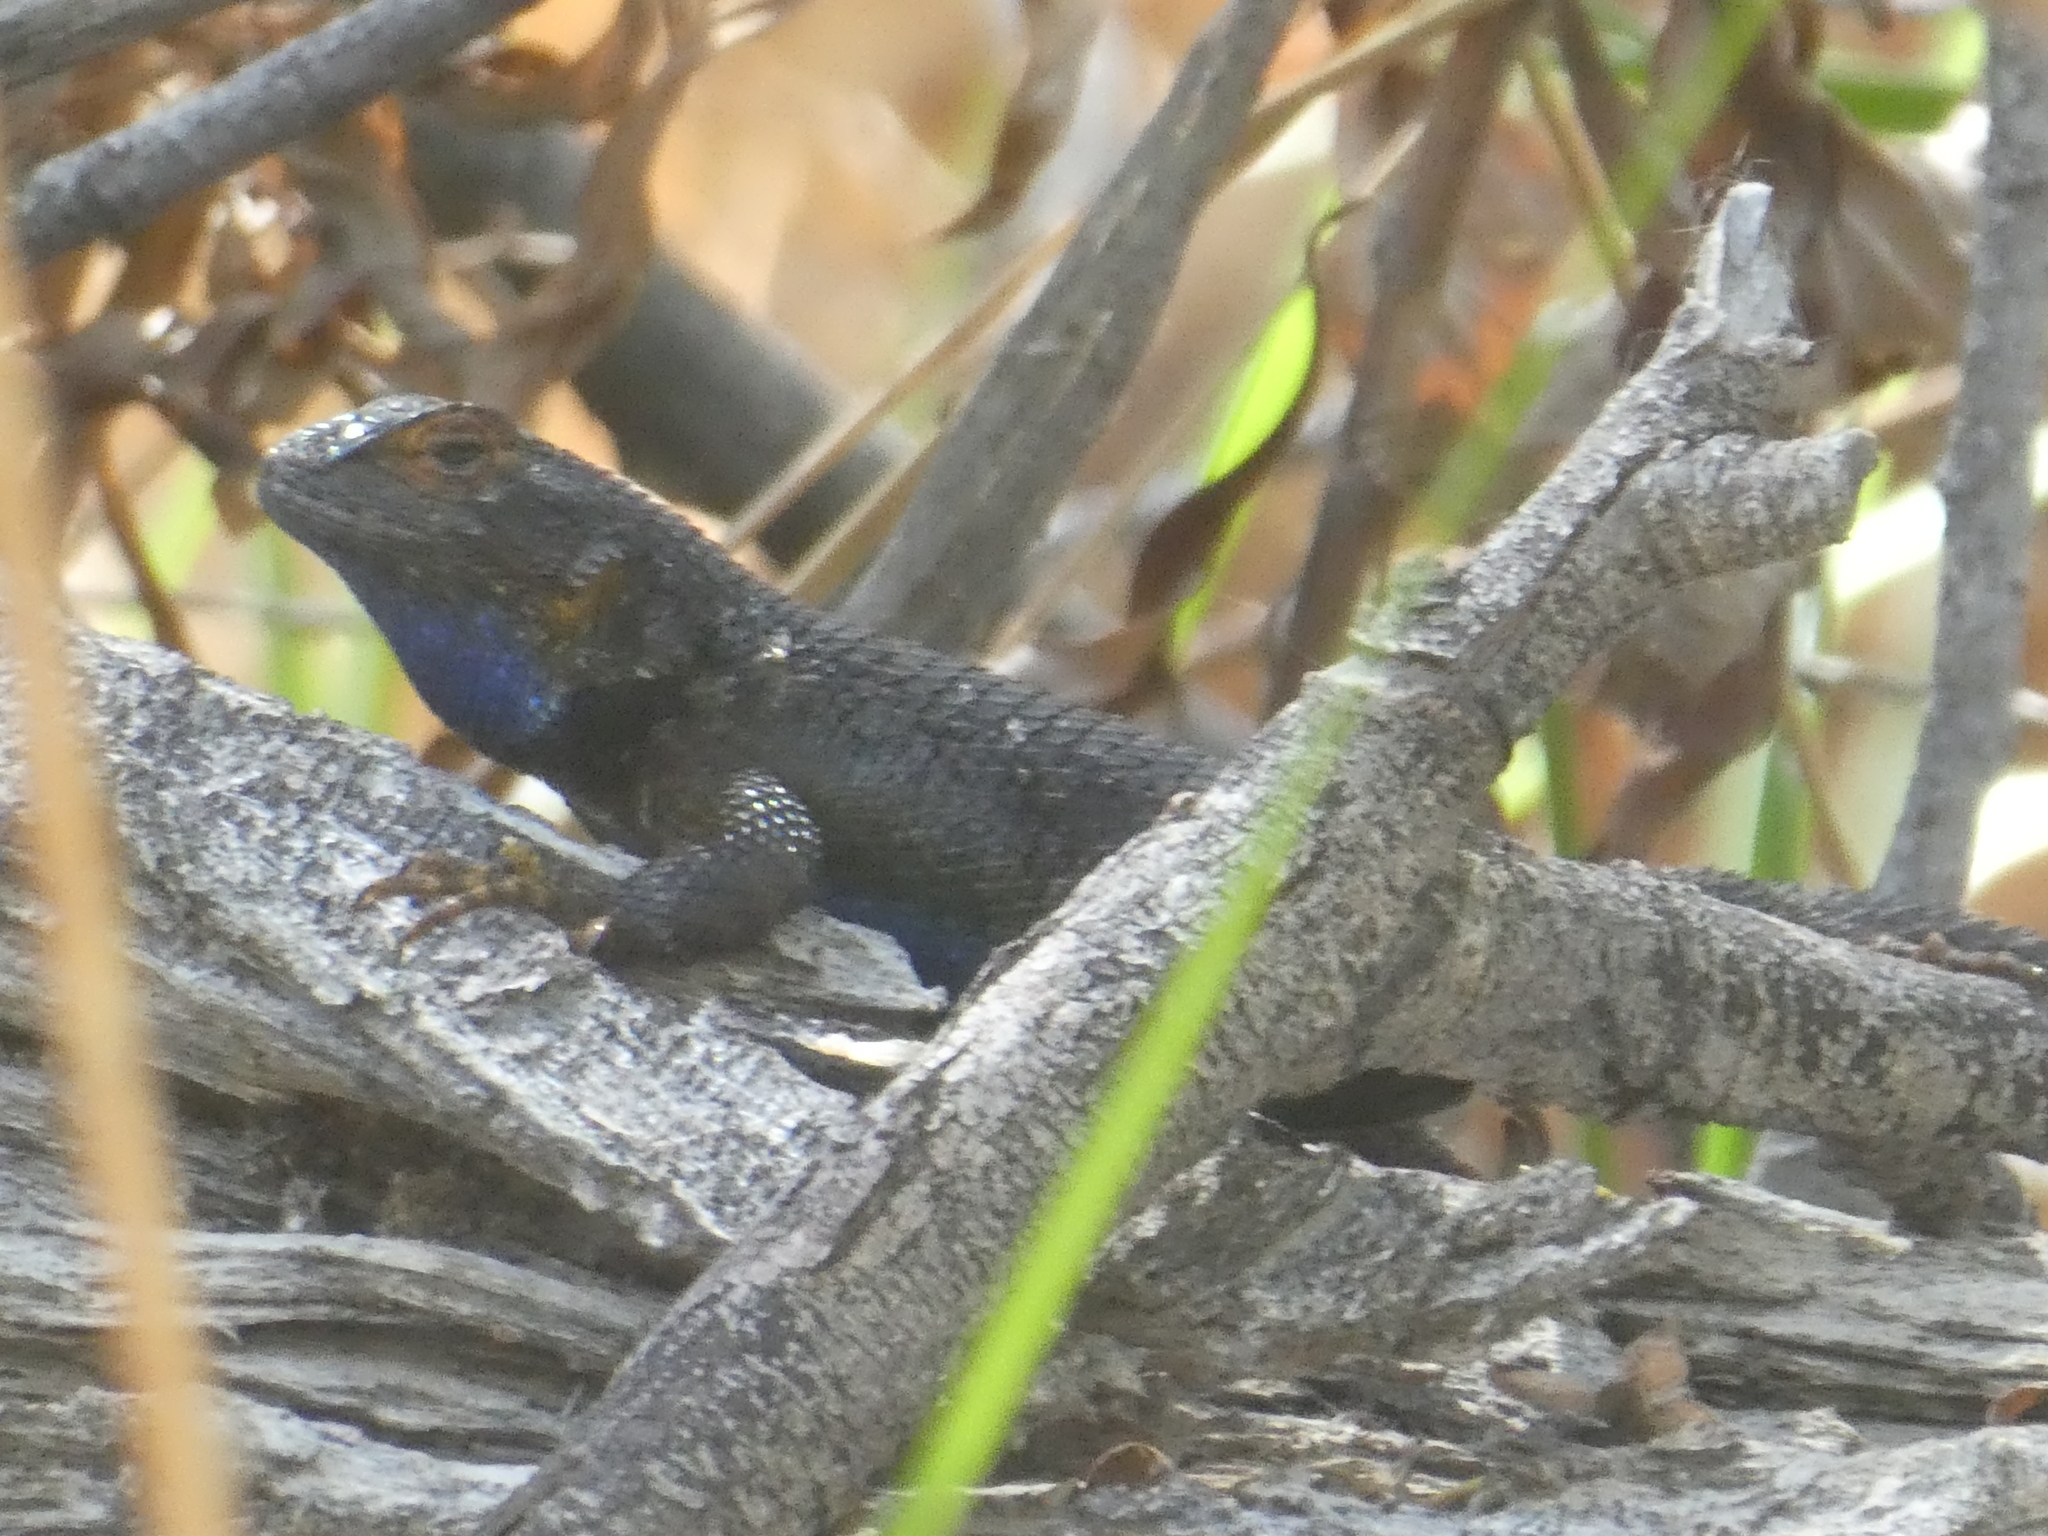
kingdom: Animalia
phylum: Chordata
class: Squamata
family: Phrynosomatidae
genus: Sceloporus
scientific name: Sceloporus occidentalis
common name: Western fence lizard
